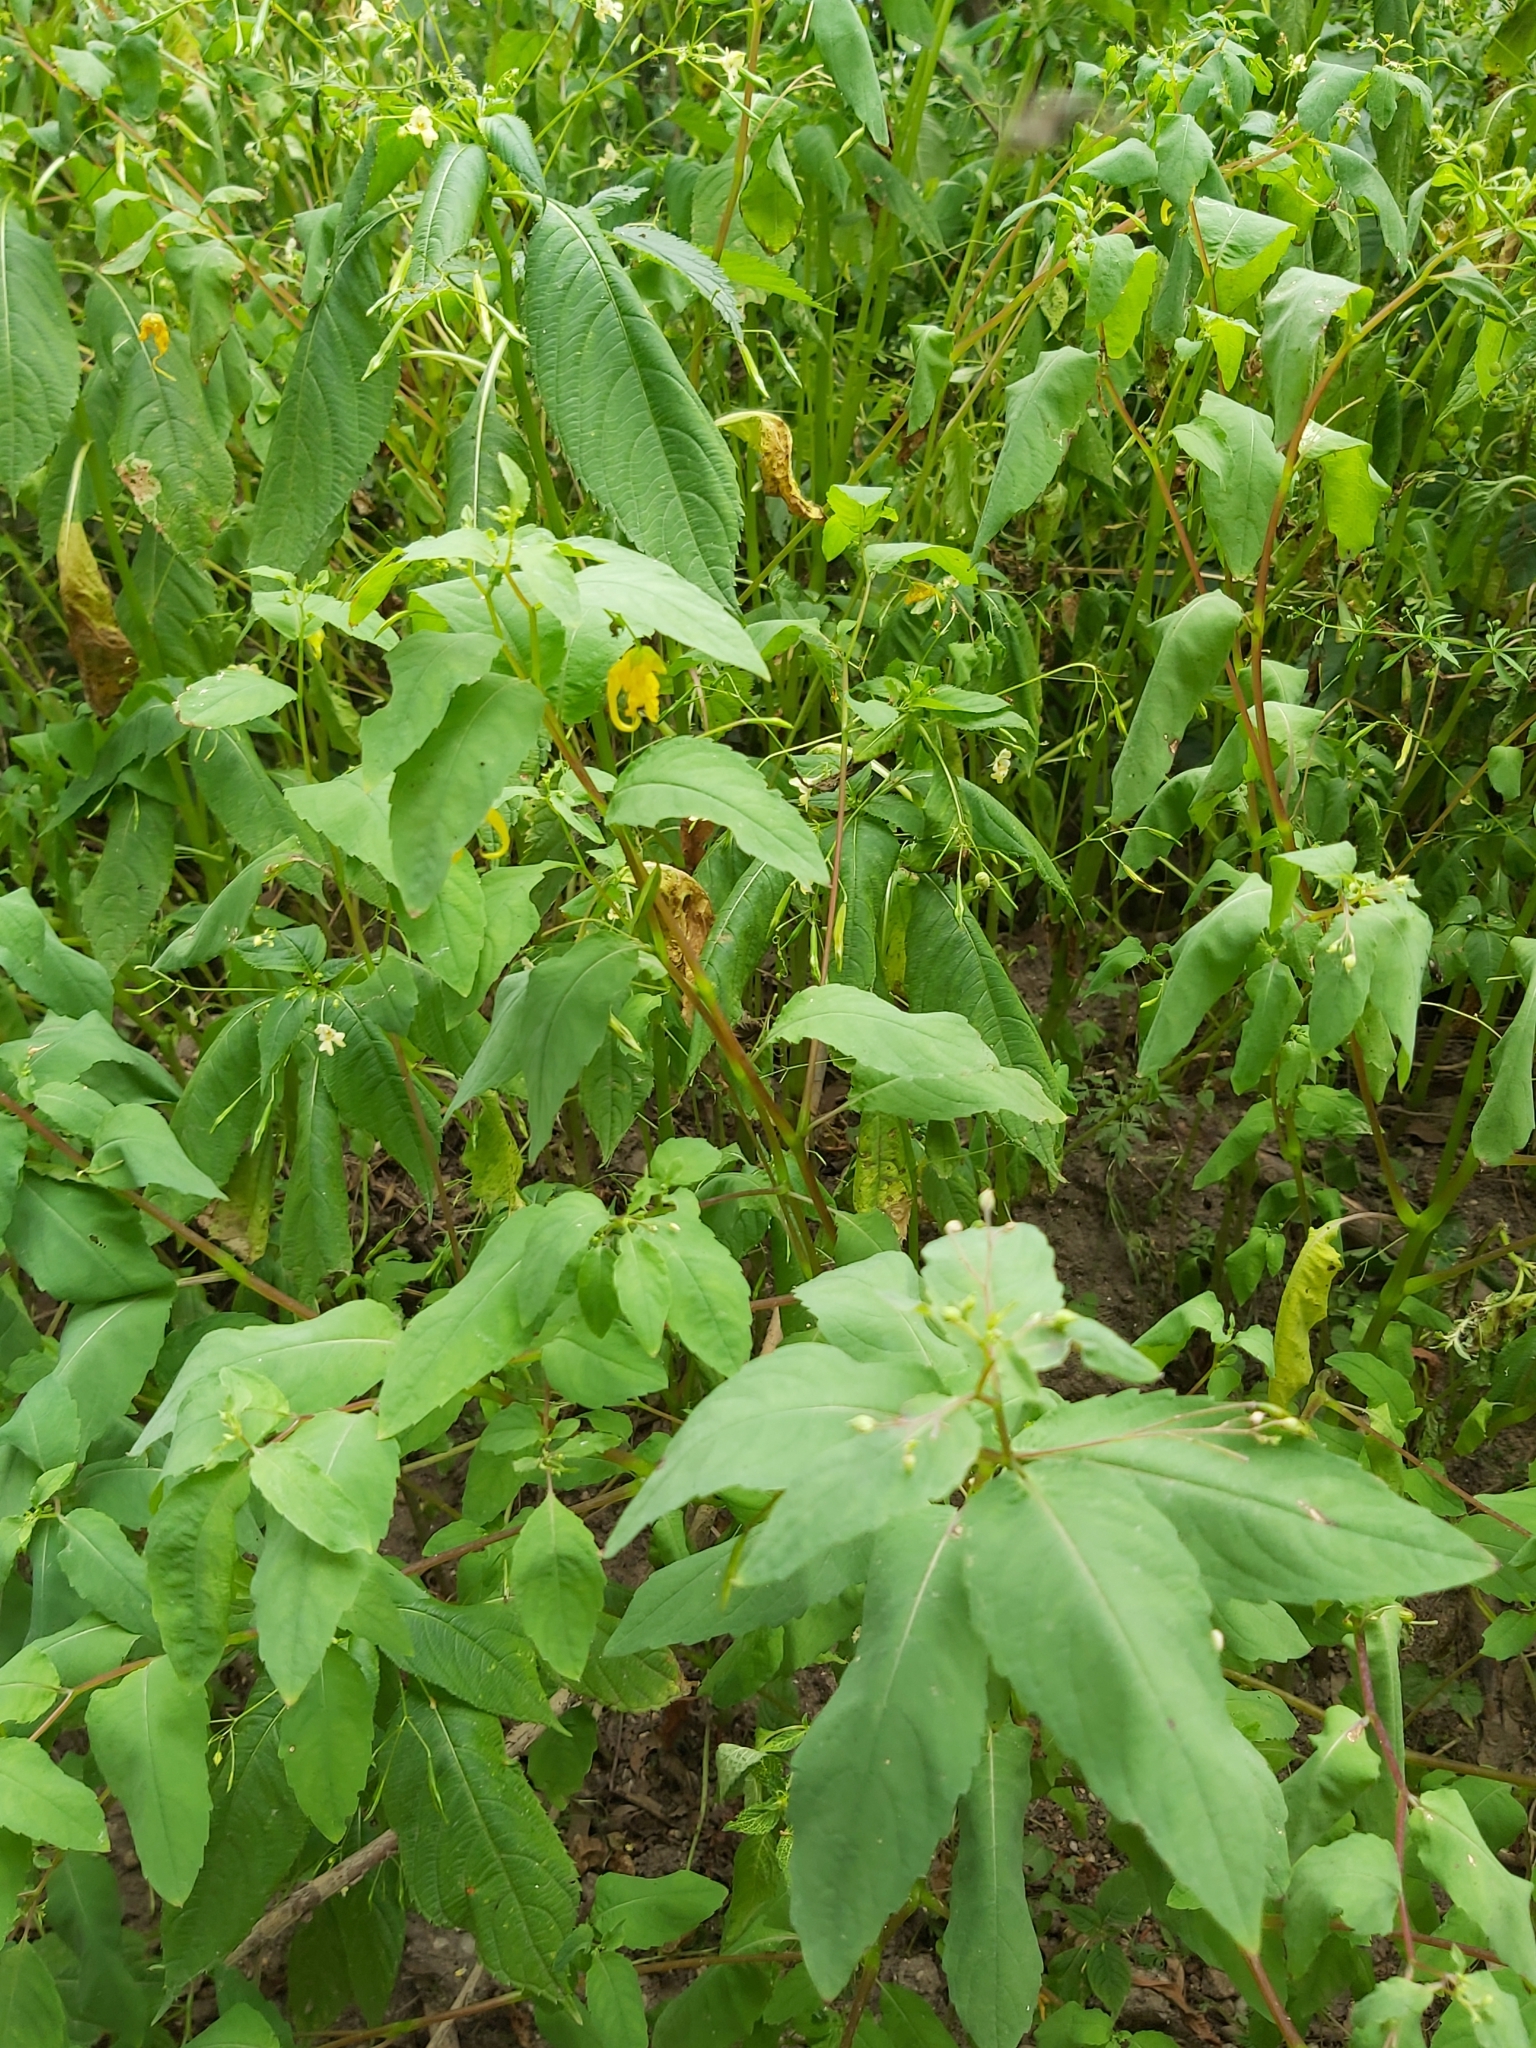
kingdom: Plantae
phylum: Tracheophyta
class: Magnoliopsida
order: Ericales
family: Balsaminaceae
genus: Impatiens
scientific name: Impatiens noli-tangere
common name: Touch-me-not balsam
